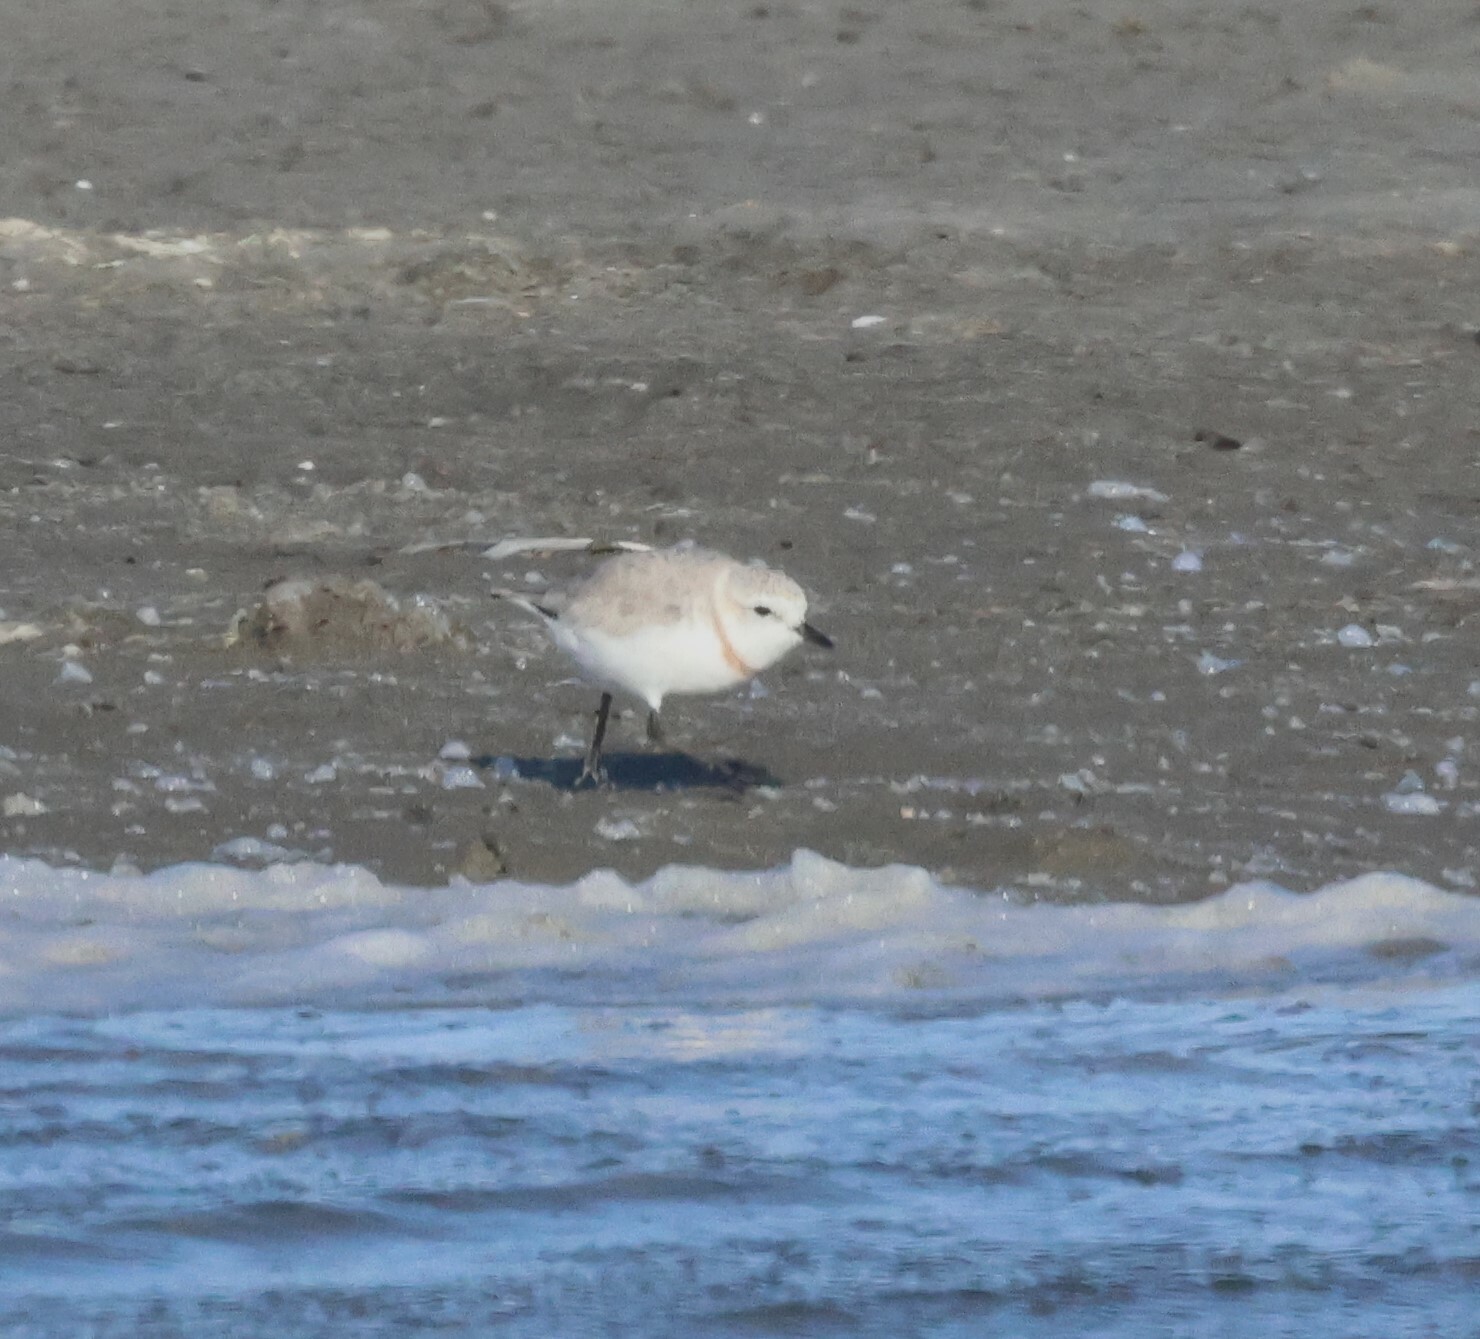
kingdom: Animalia
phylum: Chordata
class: Aves
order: Charadriiformes
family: Charadriidae
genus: Anarhynchus
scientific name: Anarhynchus
